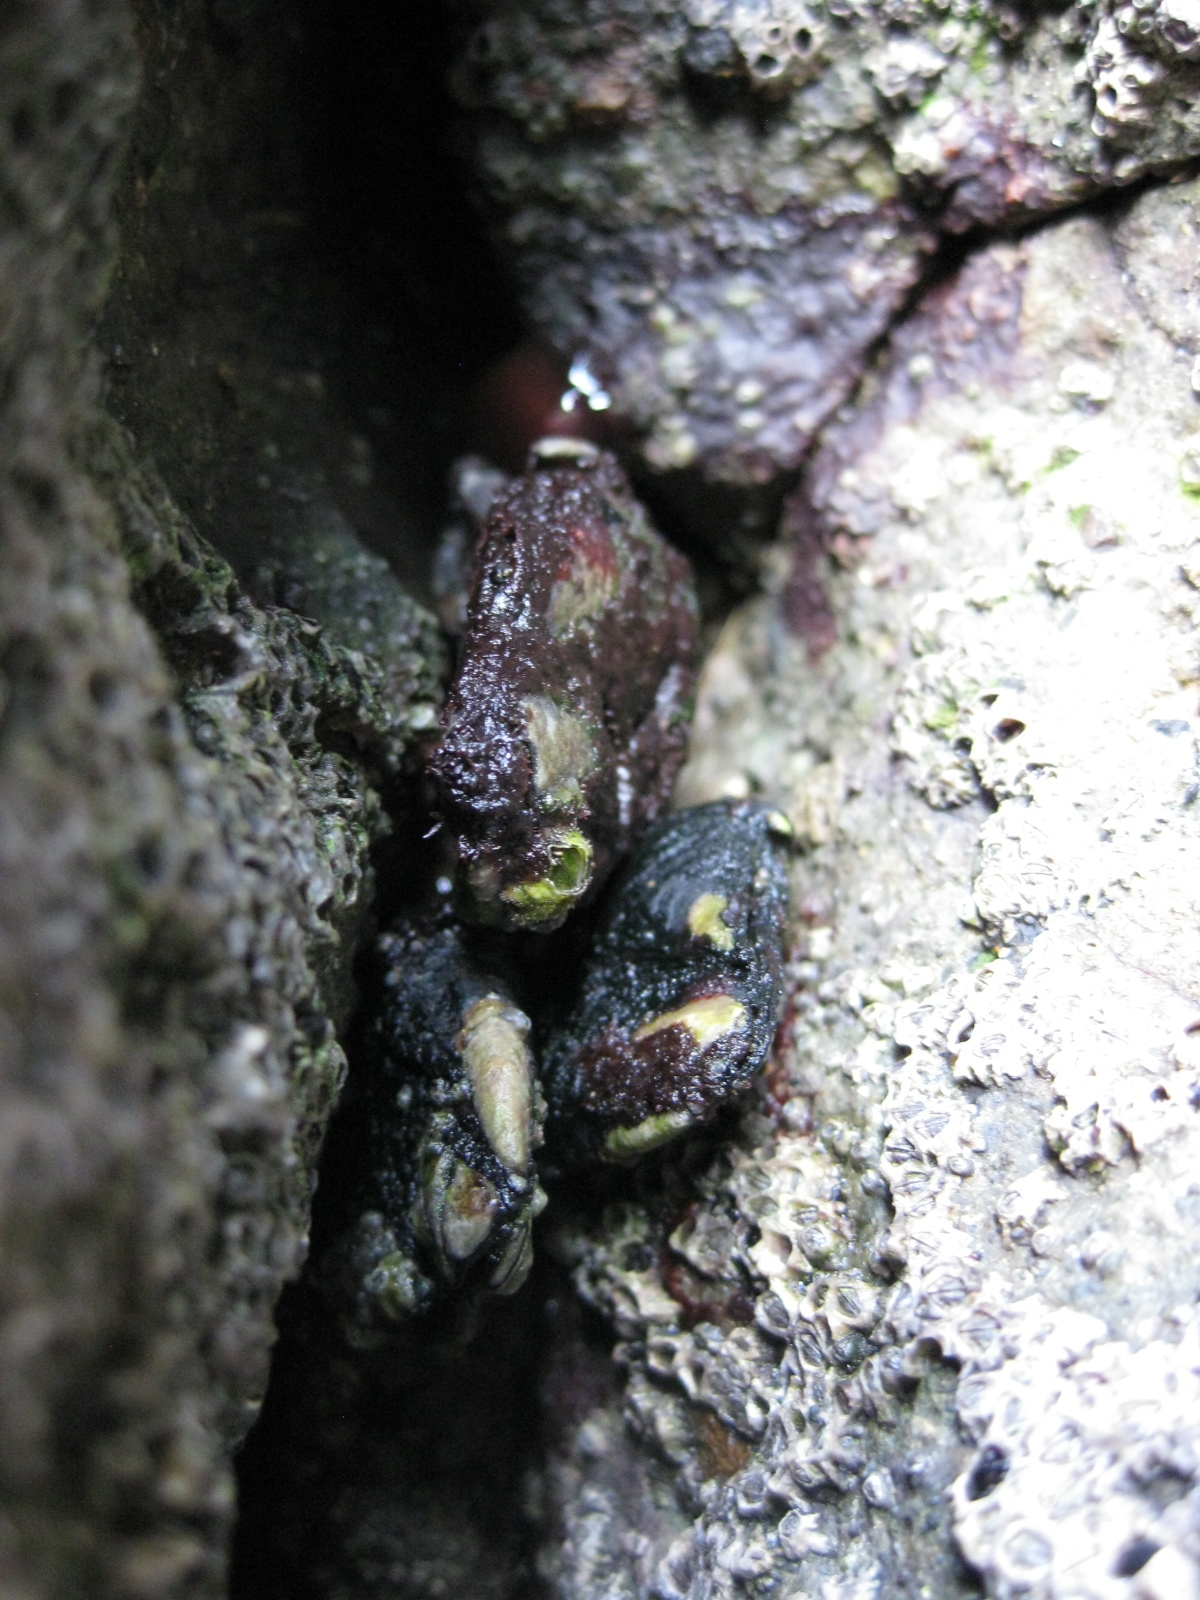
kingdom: Animalia
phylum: Arthropoda
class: Maxillopoda
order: Pedunculata
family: Calanticidae
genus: Calantica
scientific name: Calantica spinosa
